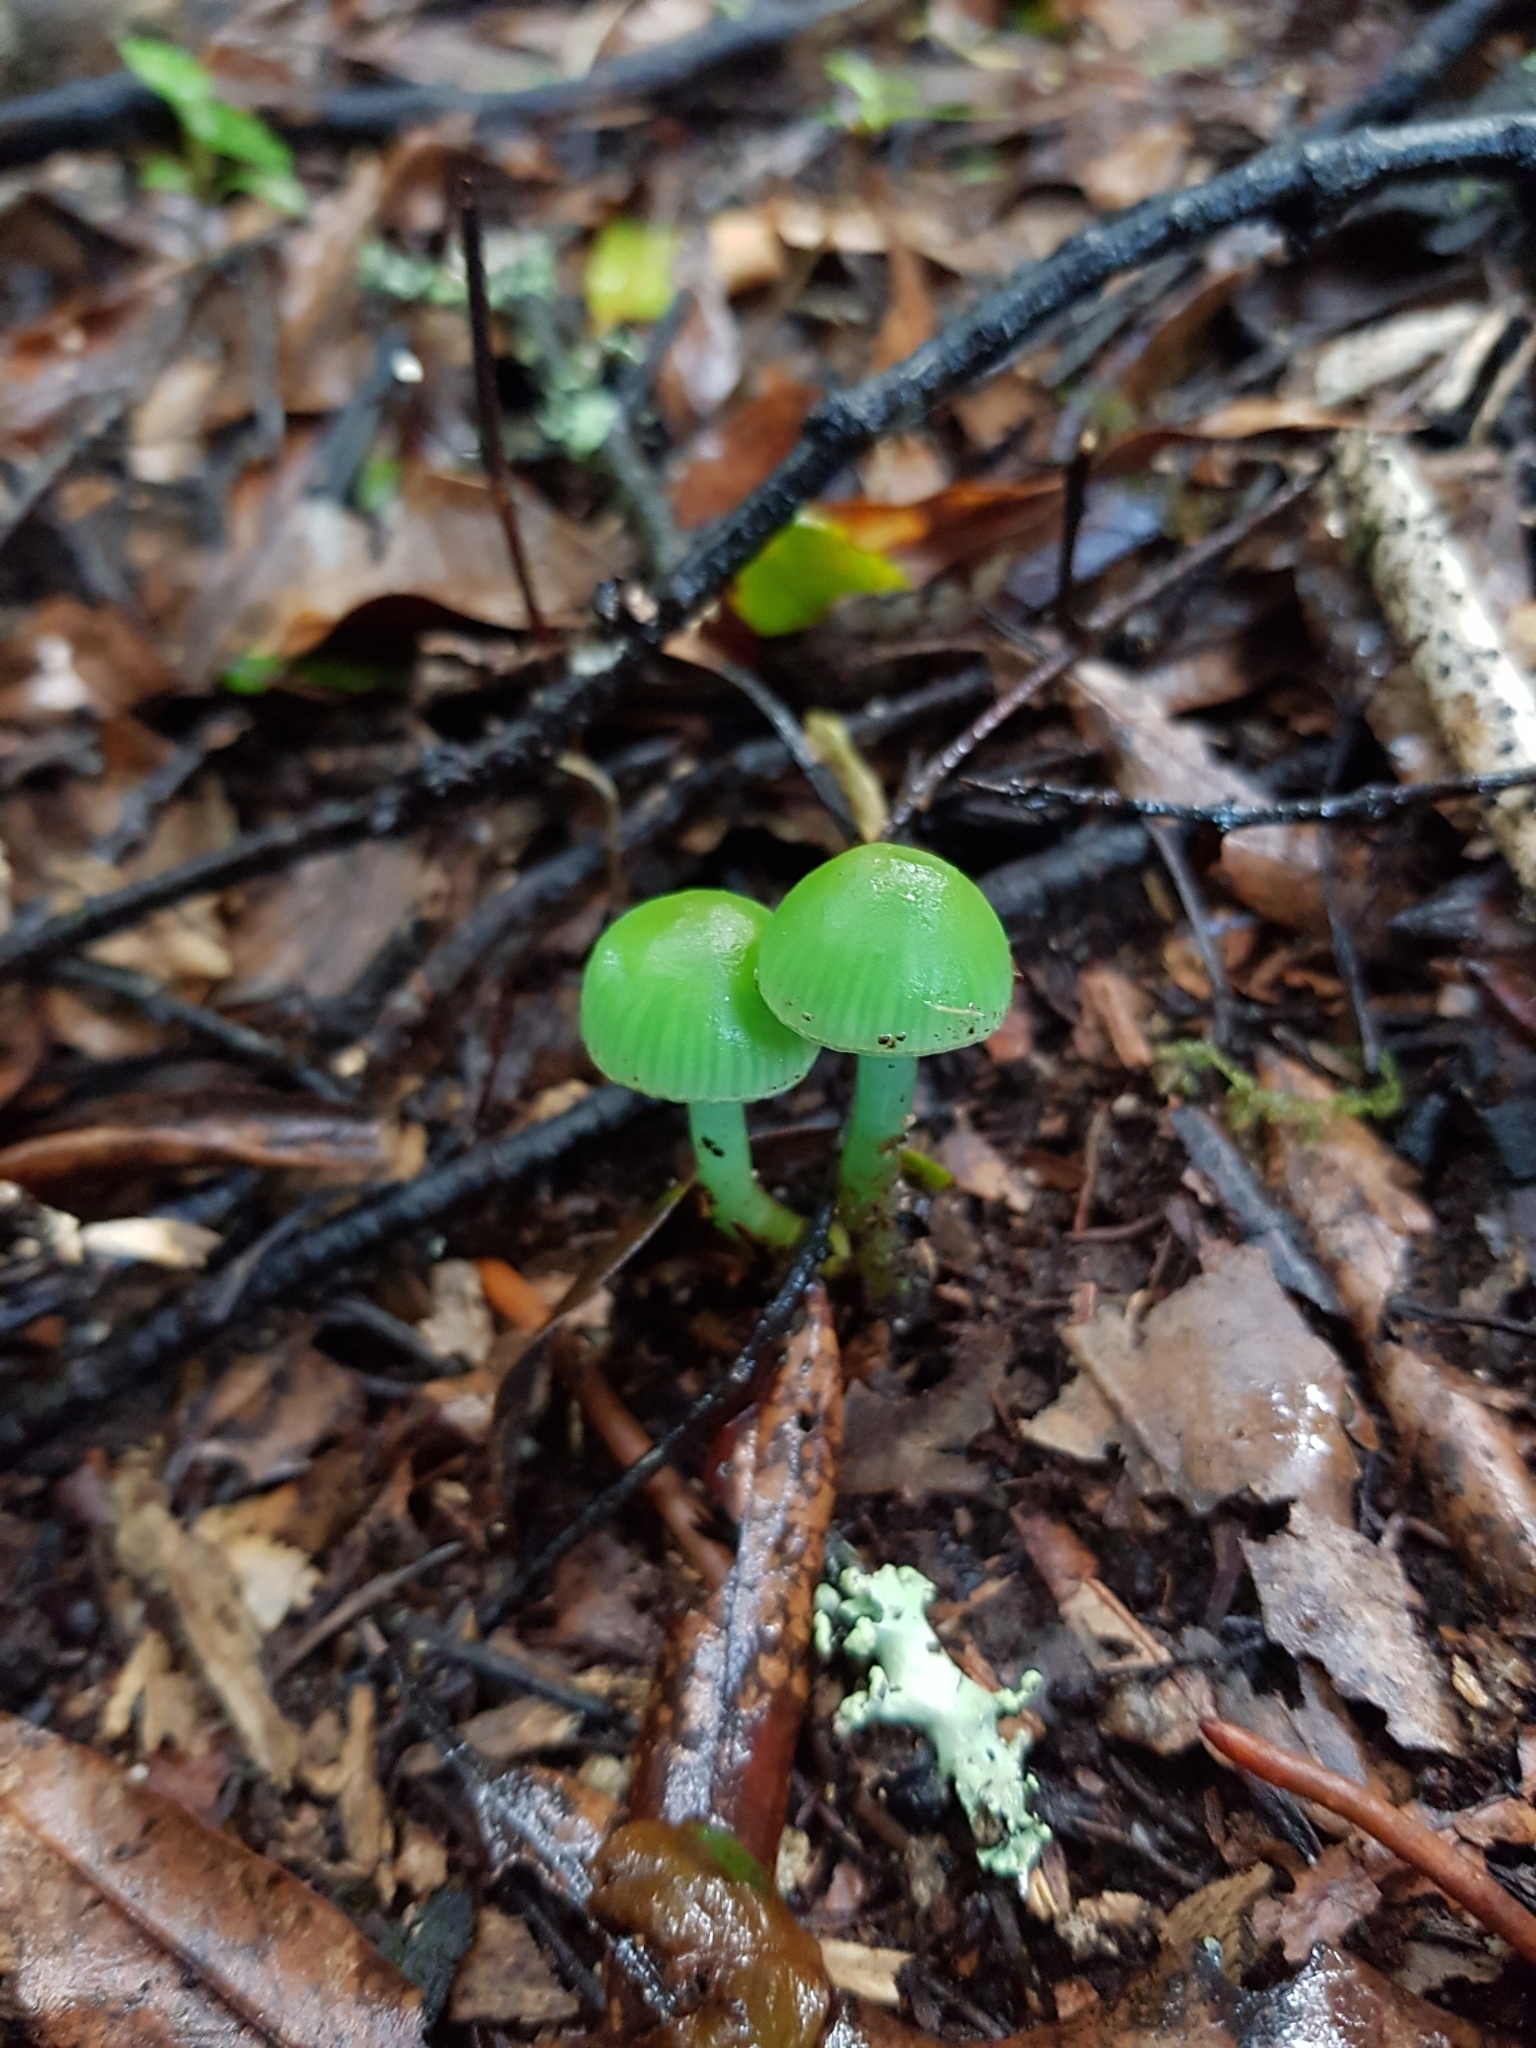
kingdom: Fungi
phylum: Basidiomycota
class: Agaricomycetes
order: Agaricales
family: Hygrophoraceae
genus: Gliophorus
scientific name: Gliophorus viridis
